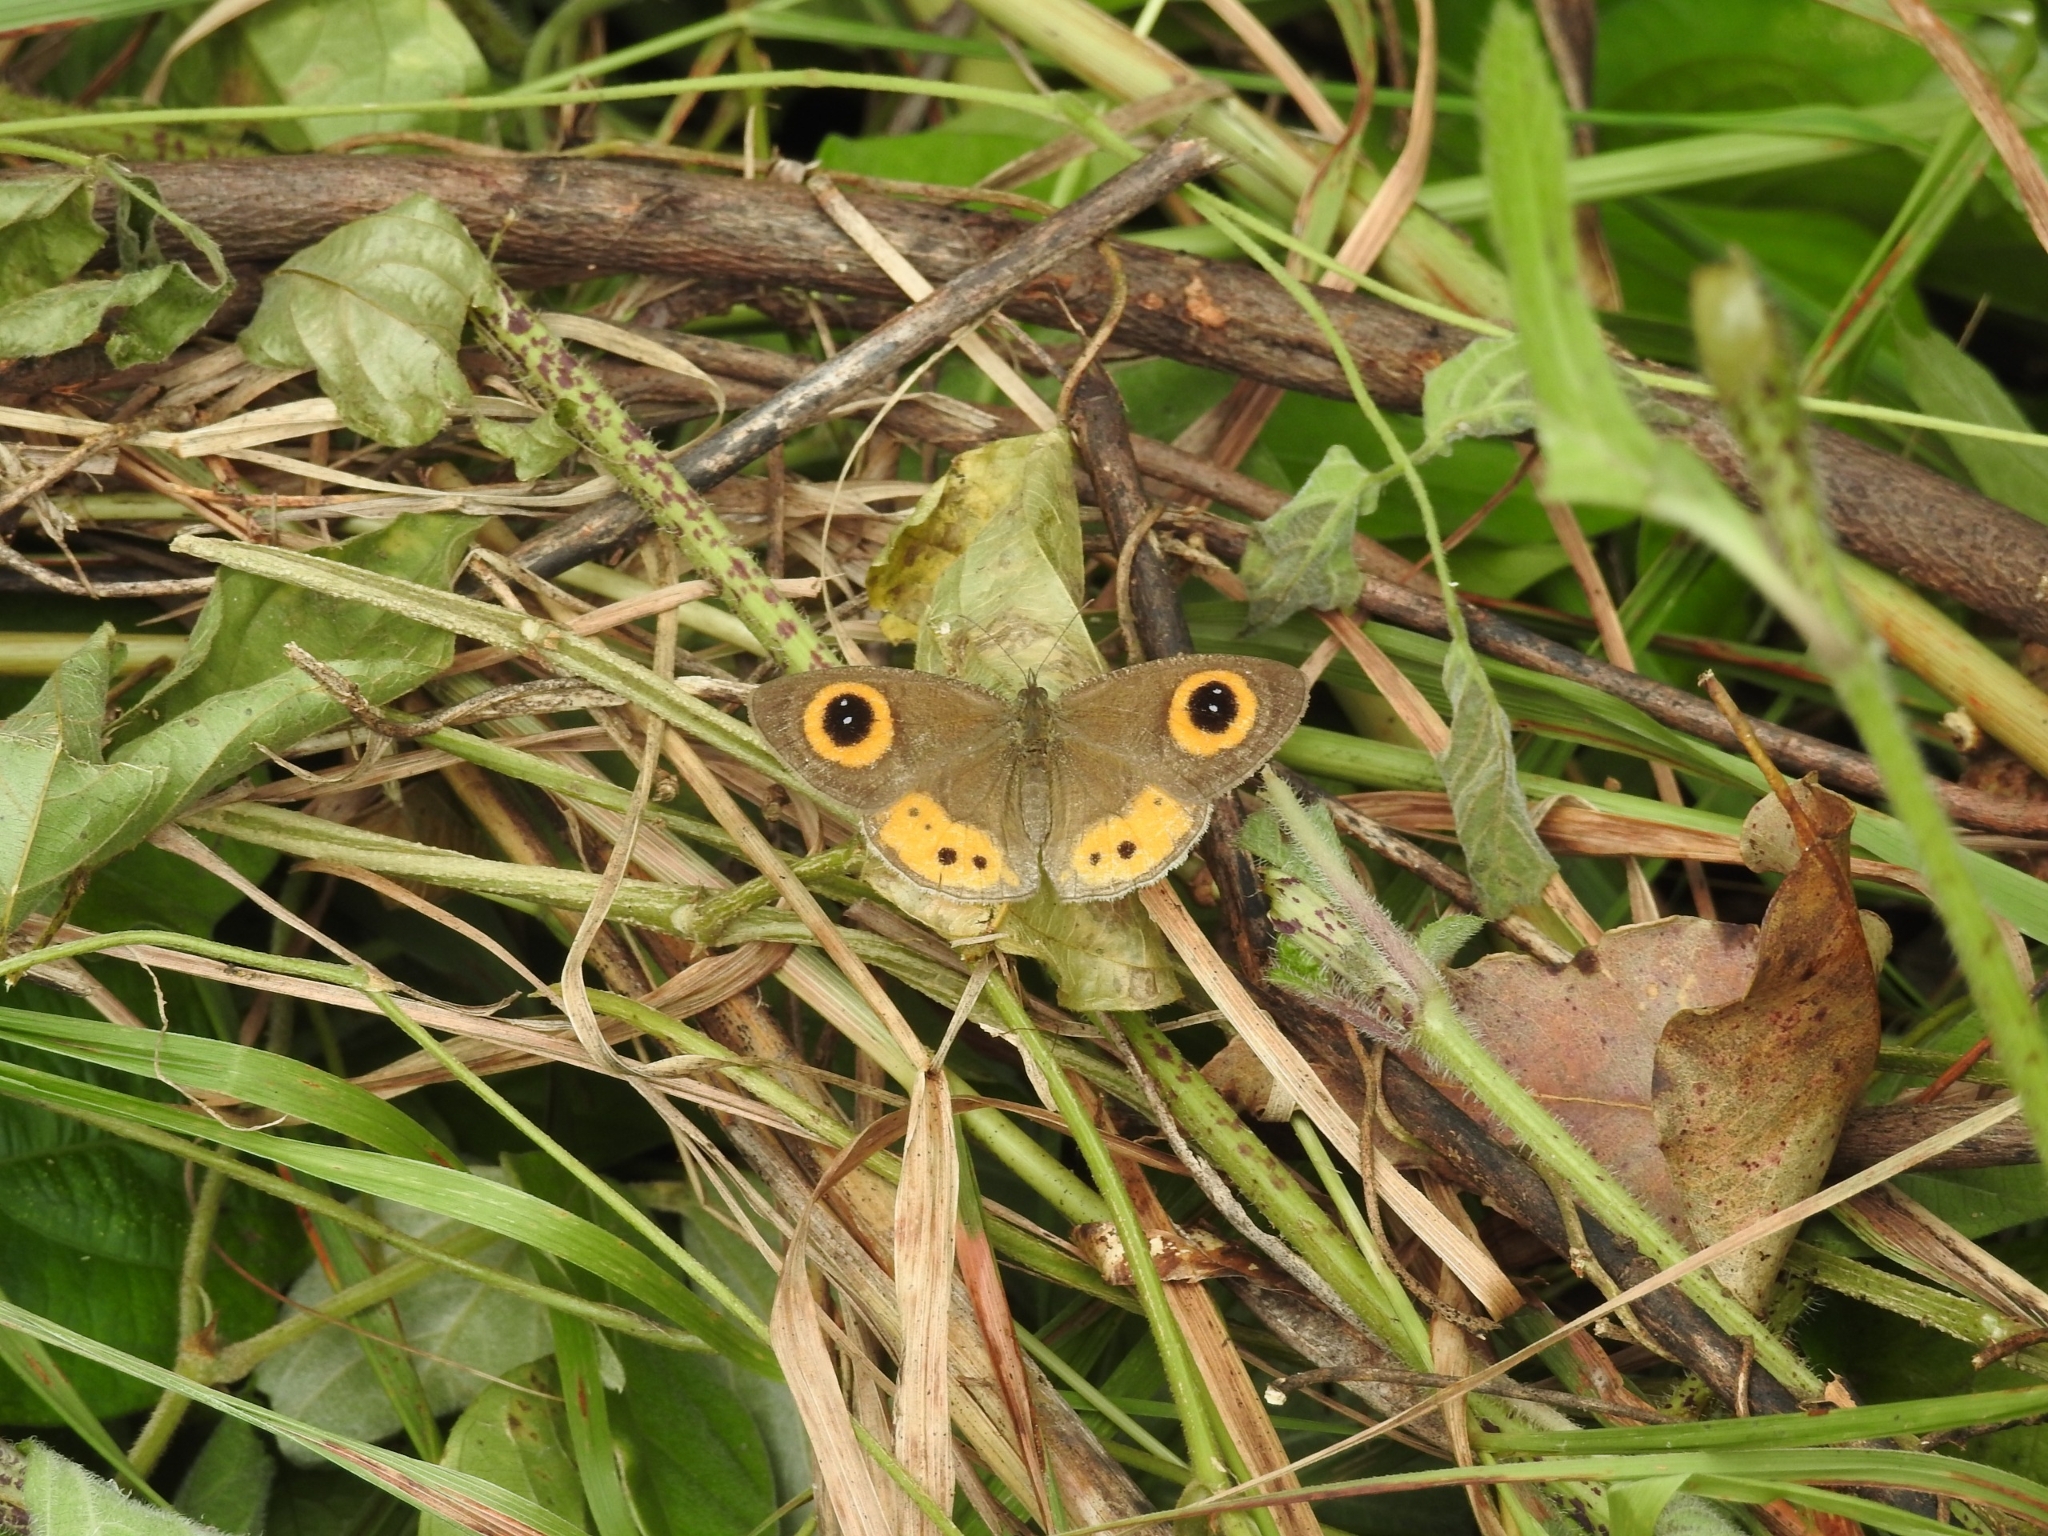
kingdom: Animalia
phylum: Arthropoda
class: Insecta
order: Lepidoptera
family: Nymphalidae
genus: Ypthima
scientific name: Ypthima aphnius
